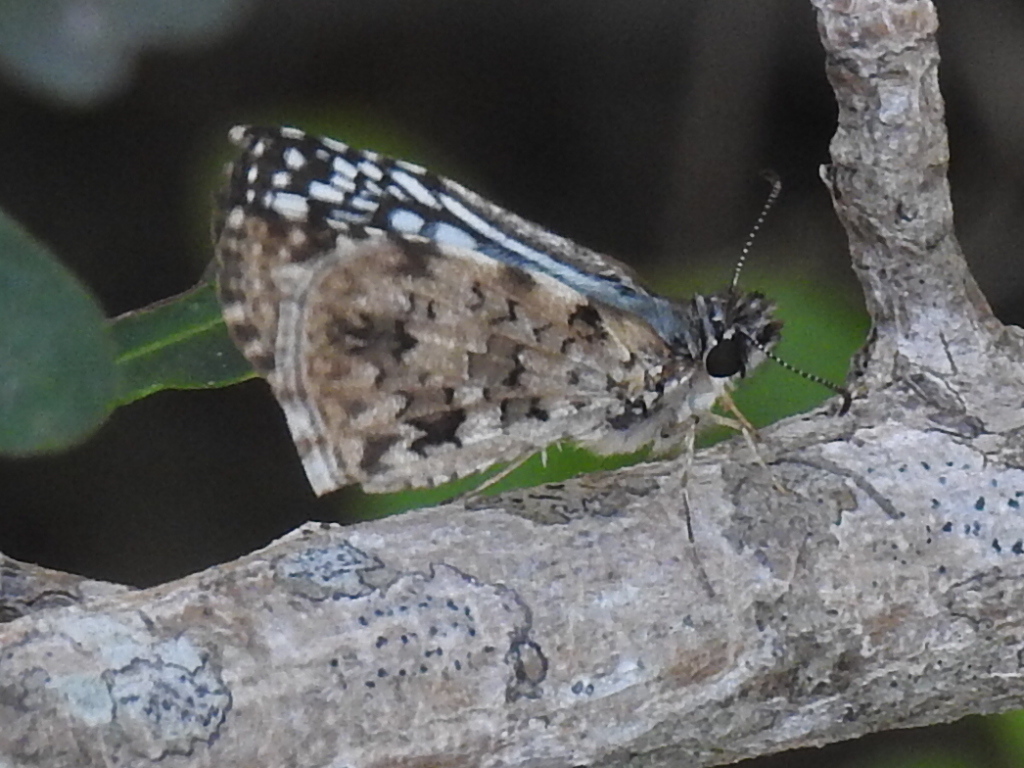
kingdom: Animalia
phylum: Arthropoda
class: Insecta
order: Lepidoptera
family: Hesperiidae
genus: Pyrgus
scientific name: Pyrgus oileus
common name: Tropical checkered-skipper
